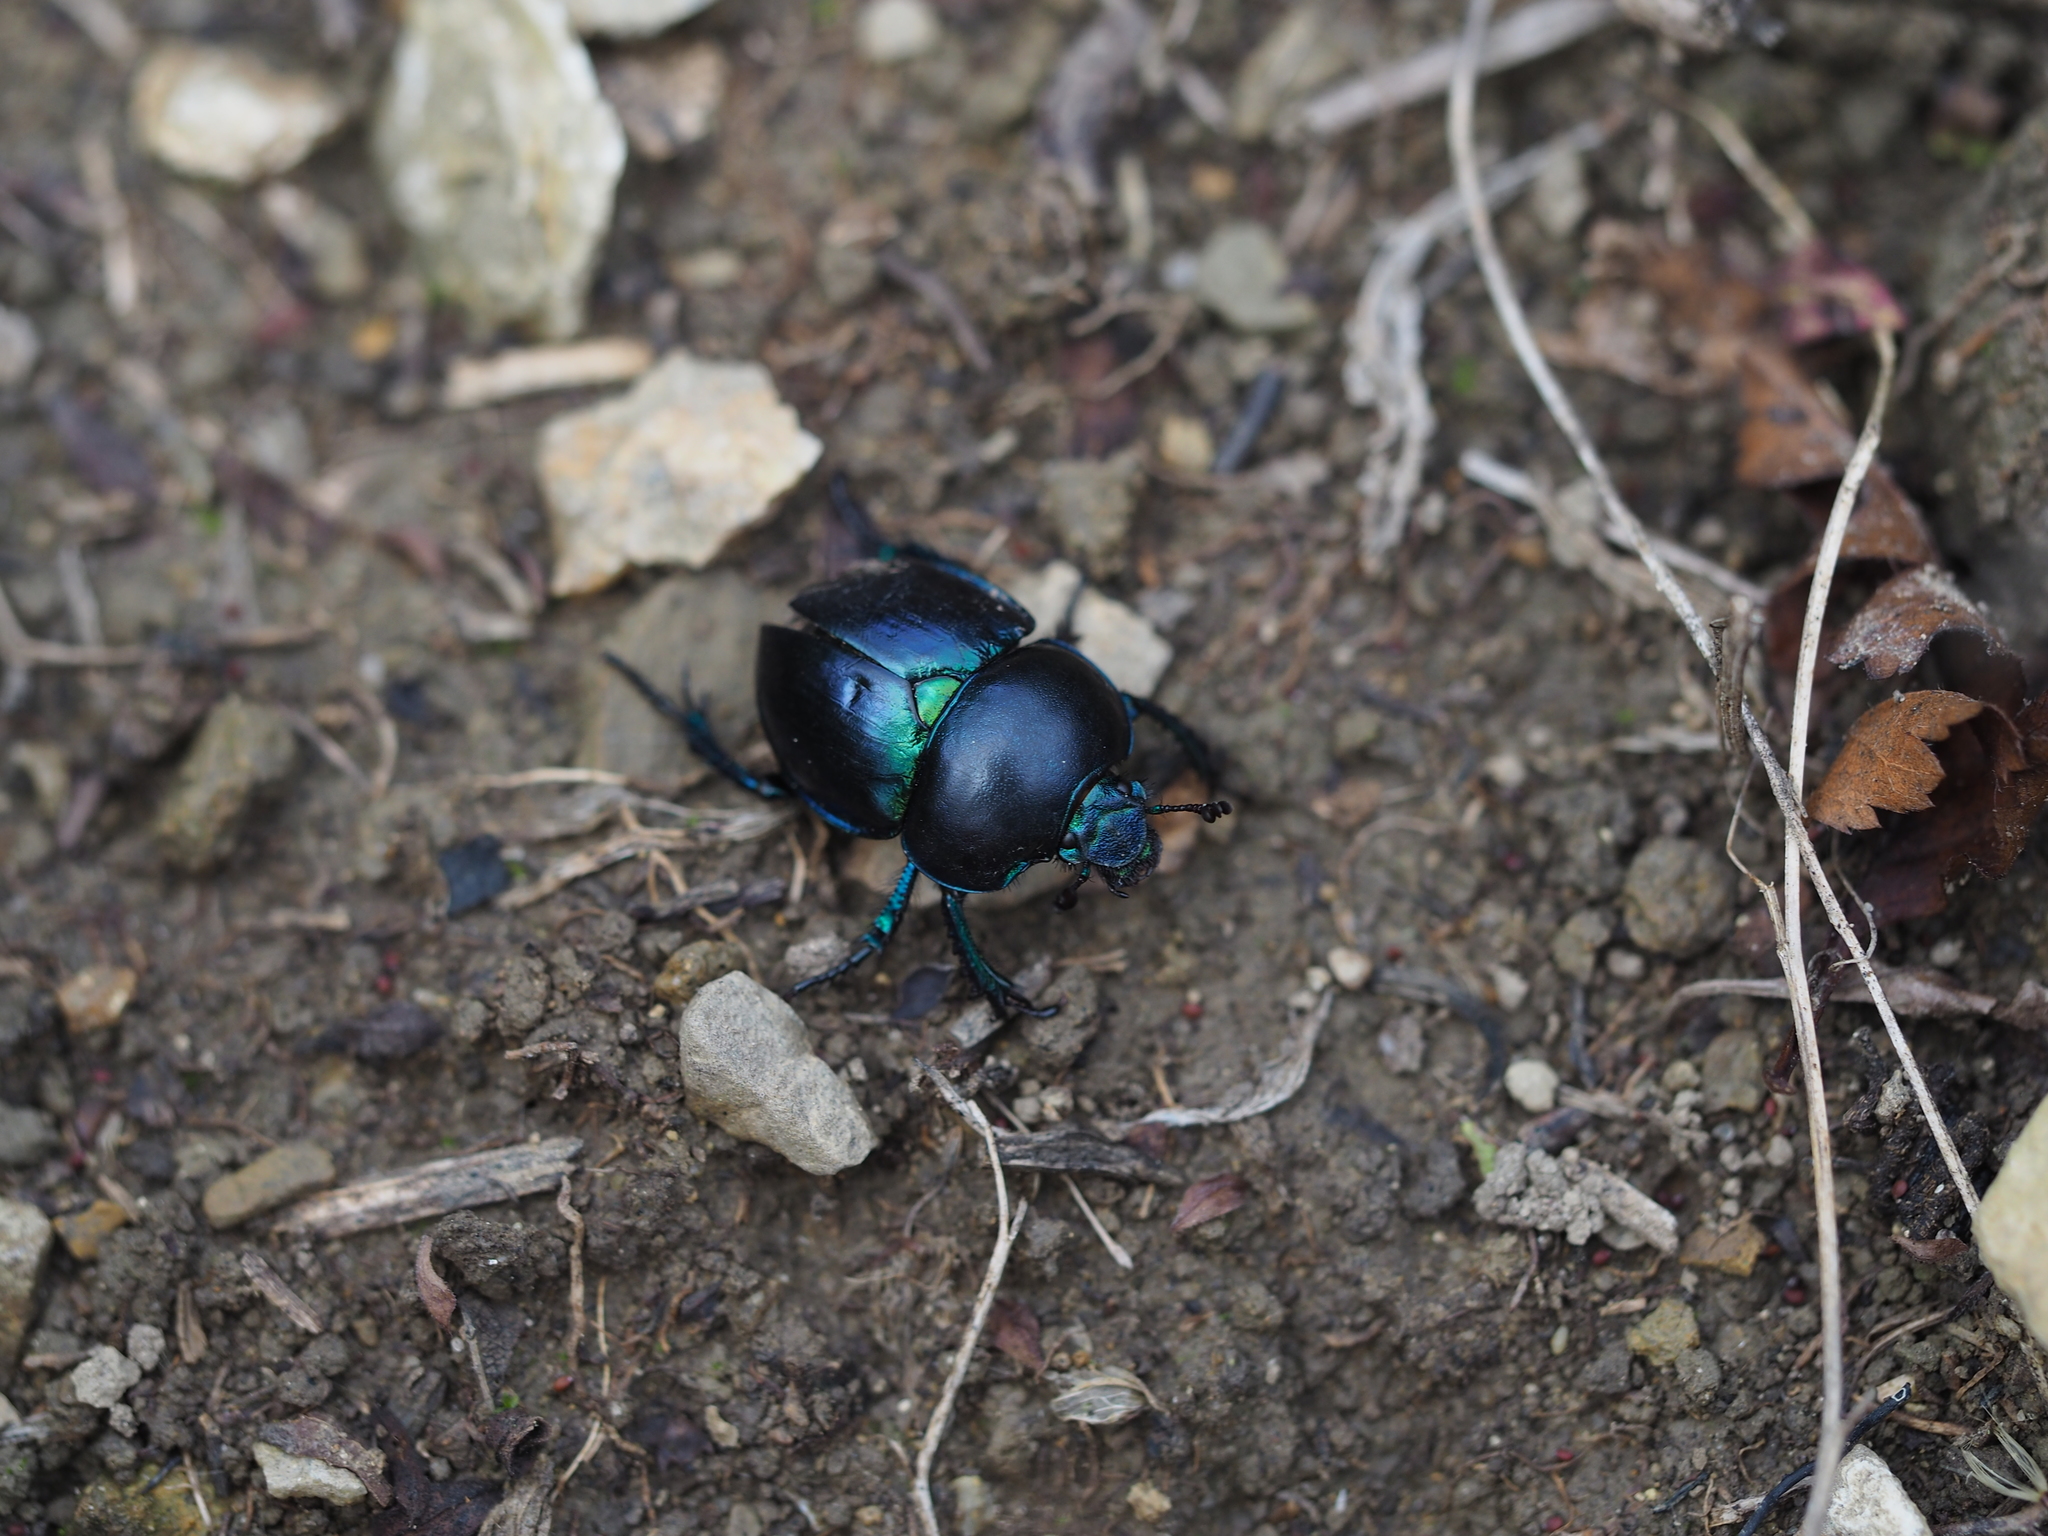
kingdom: Animalia
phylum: Arthropoda
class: Insecta
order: Coleoptera
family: Geotrupidae
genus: Trypocopris
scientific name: Trypocopris vernalis
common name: Spring dumbledor
